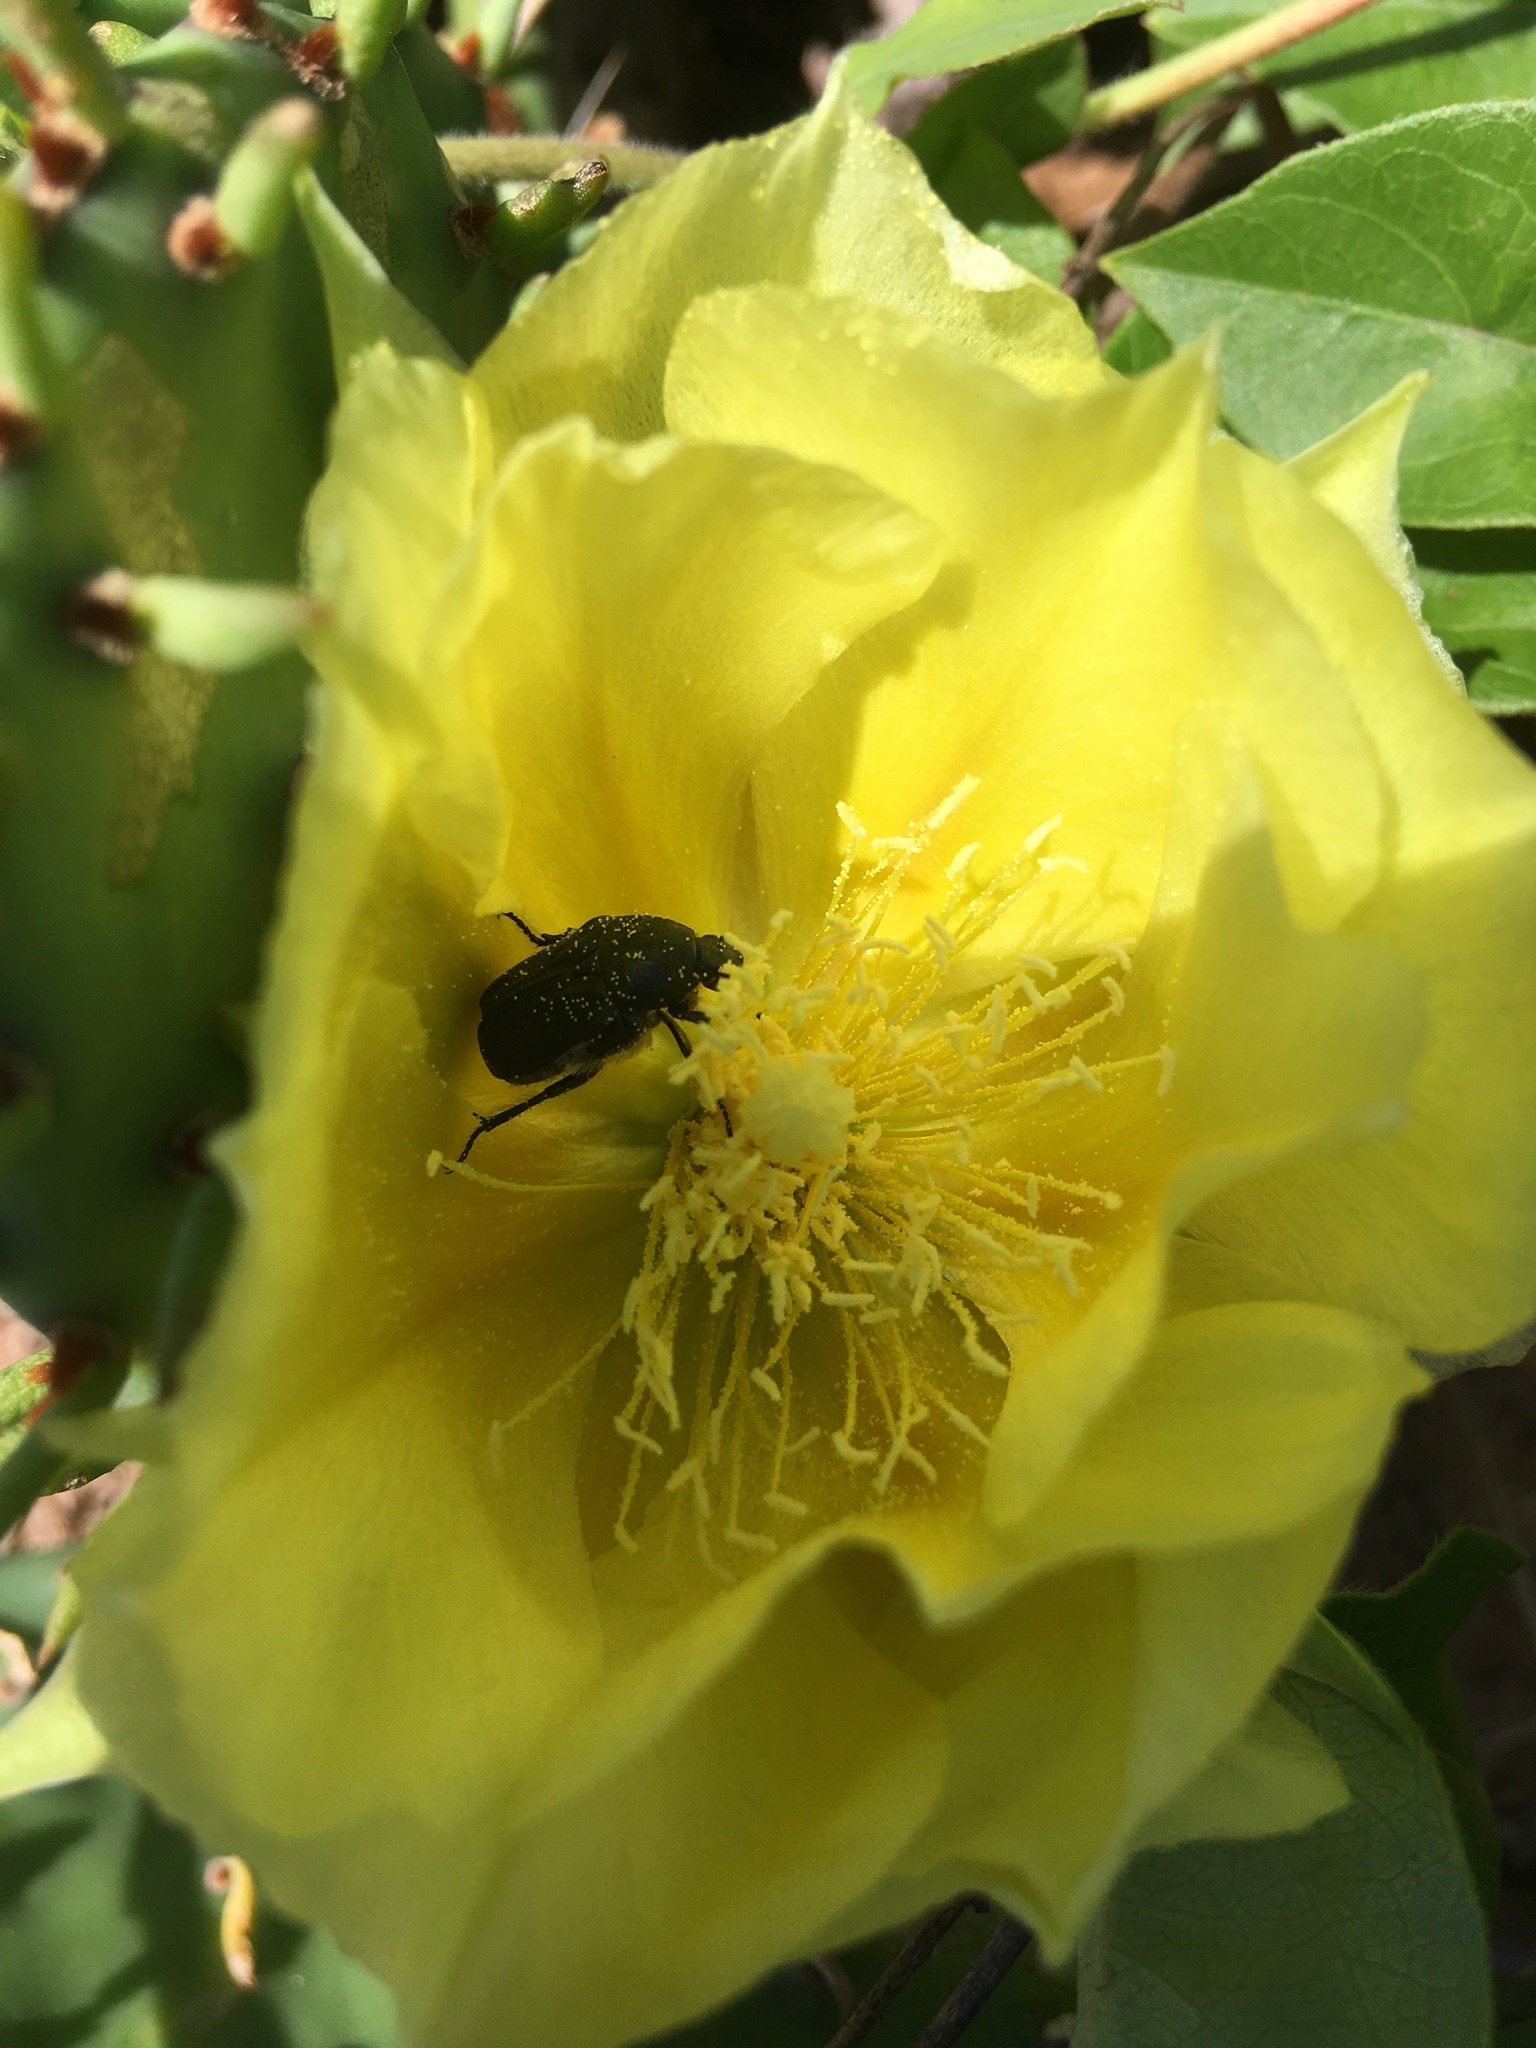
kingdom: Animalia
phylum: Arthropoda
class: Insecta
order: Coleoptera
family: Scarabaeidae
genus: Euphoria
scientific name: Euphoria kernii
